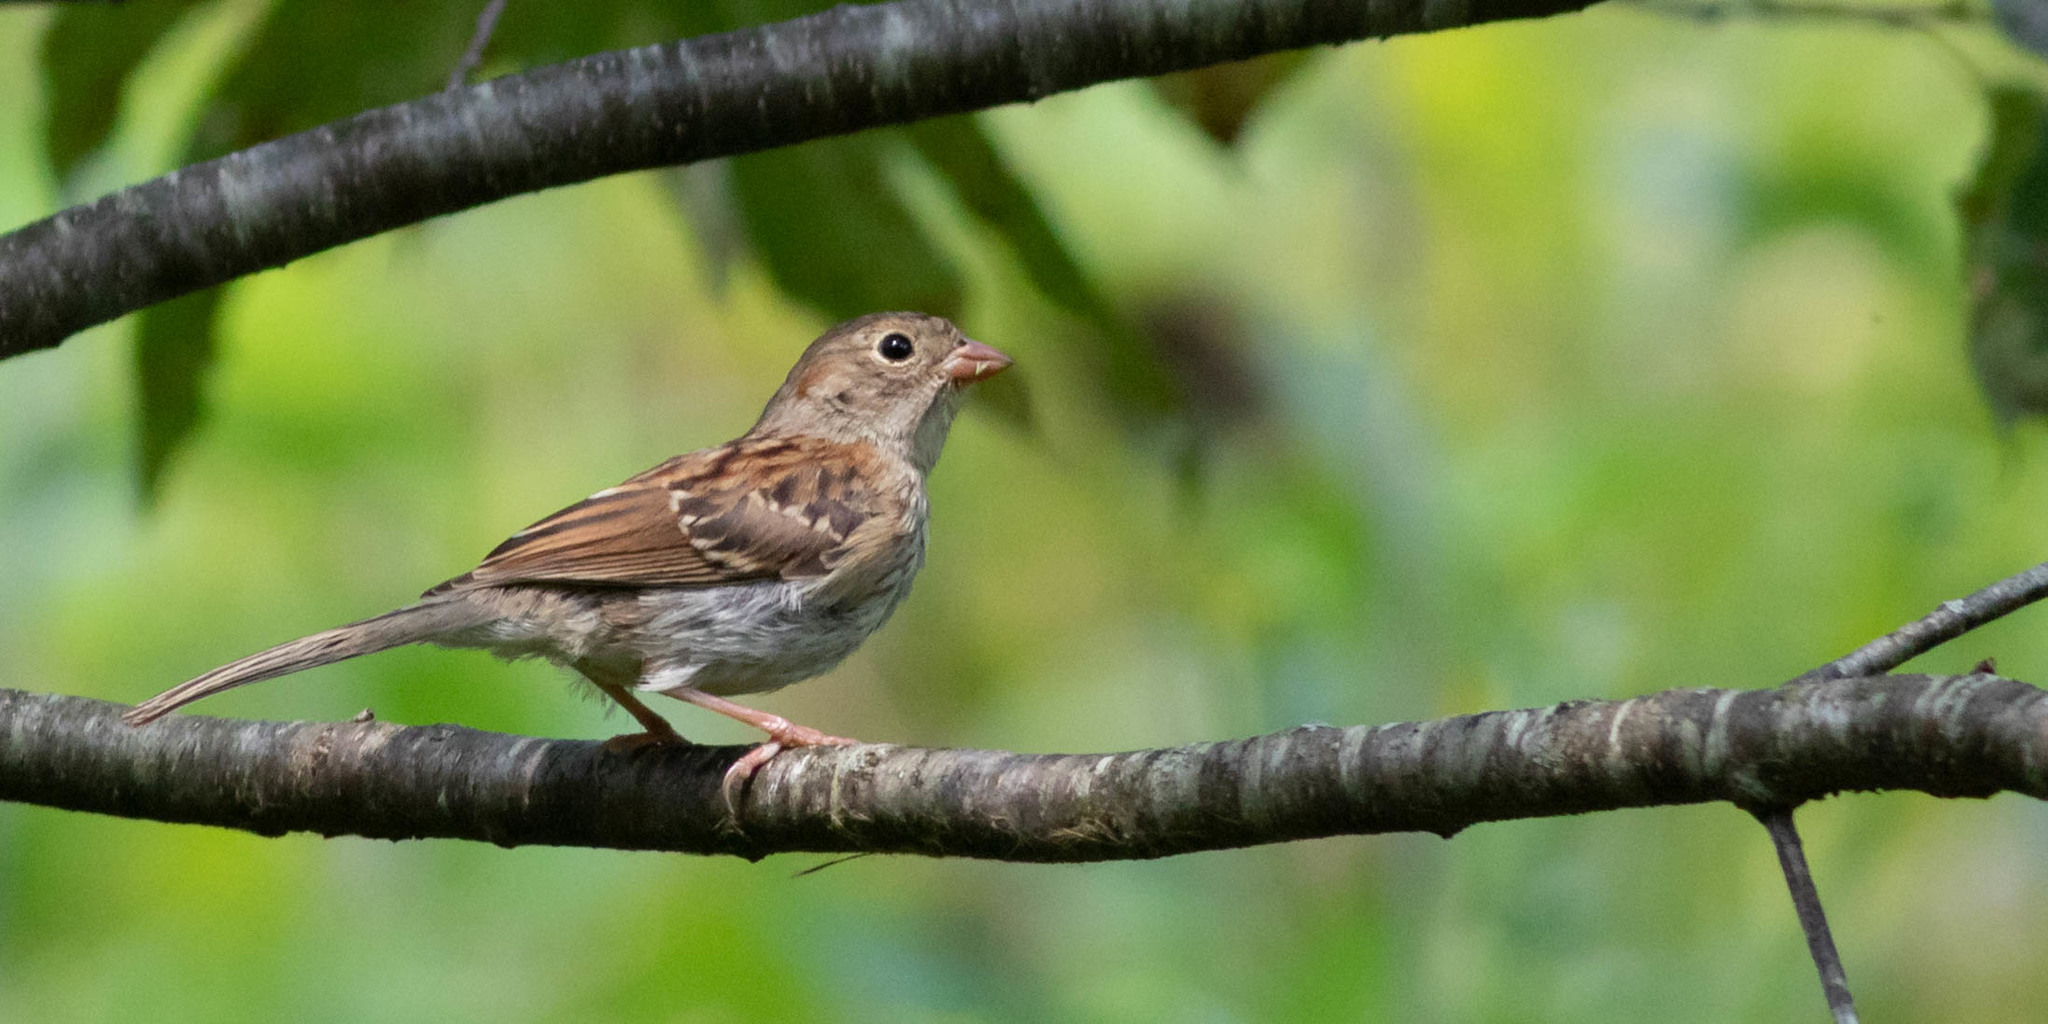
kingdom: Animalia
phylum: Chordata
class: Aves
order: Passeriformes
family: Passerellidae
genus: Spizella
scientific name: Spizella pusilla
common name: Field sparrow
